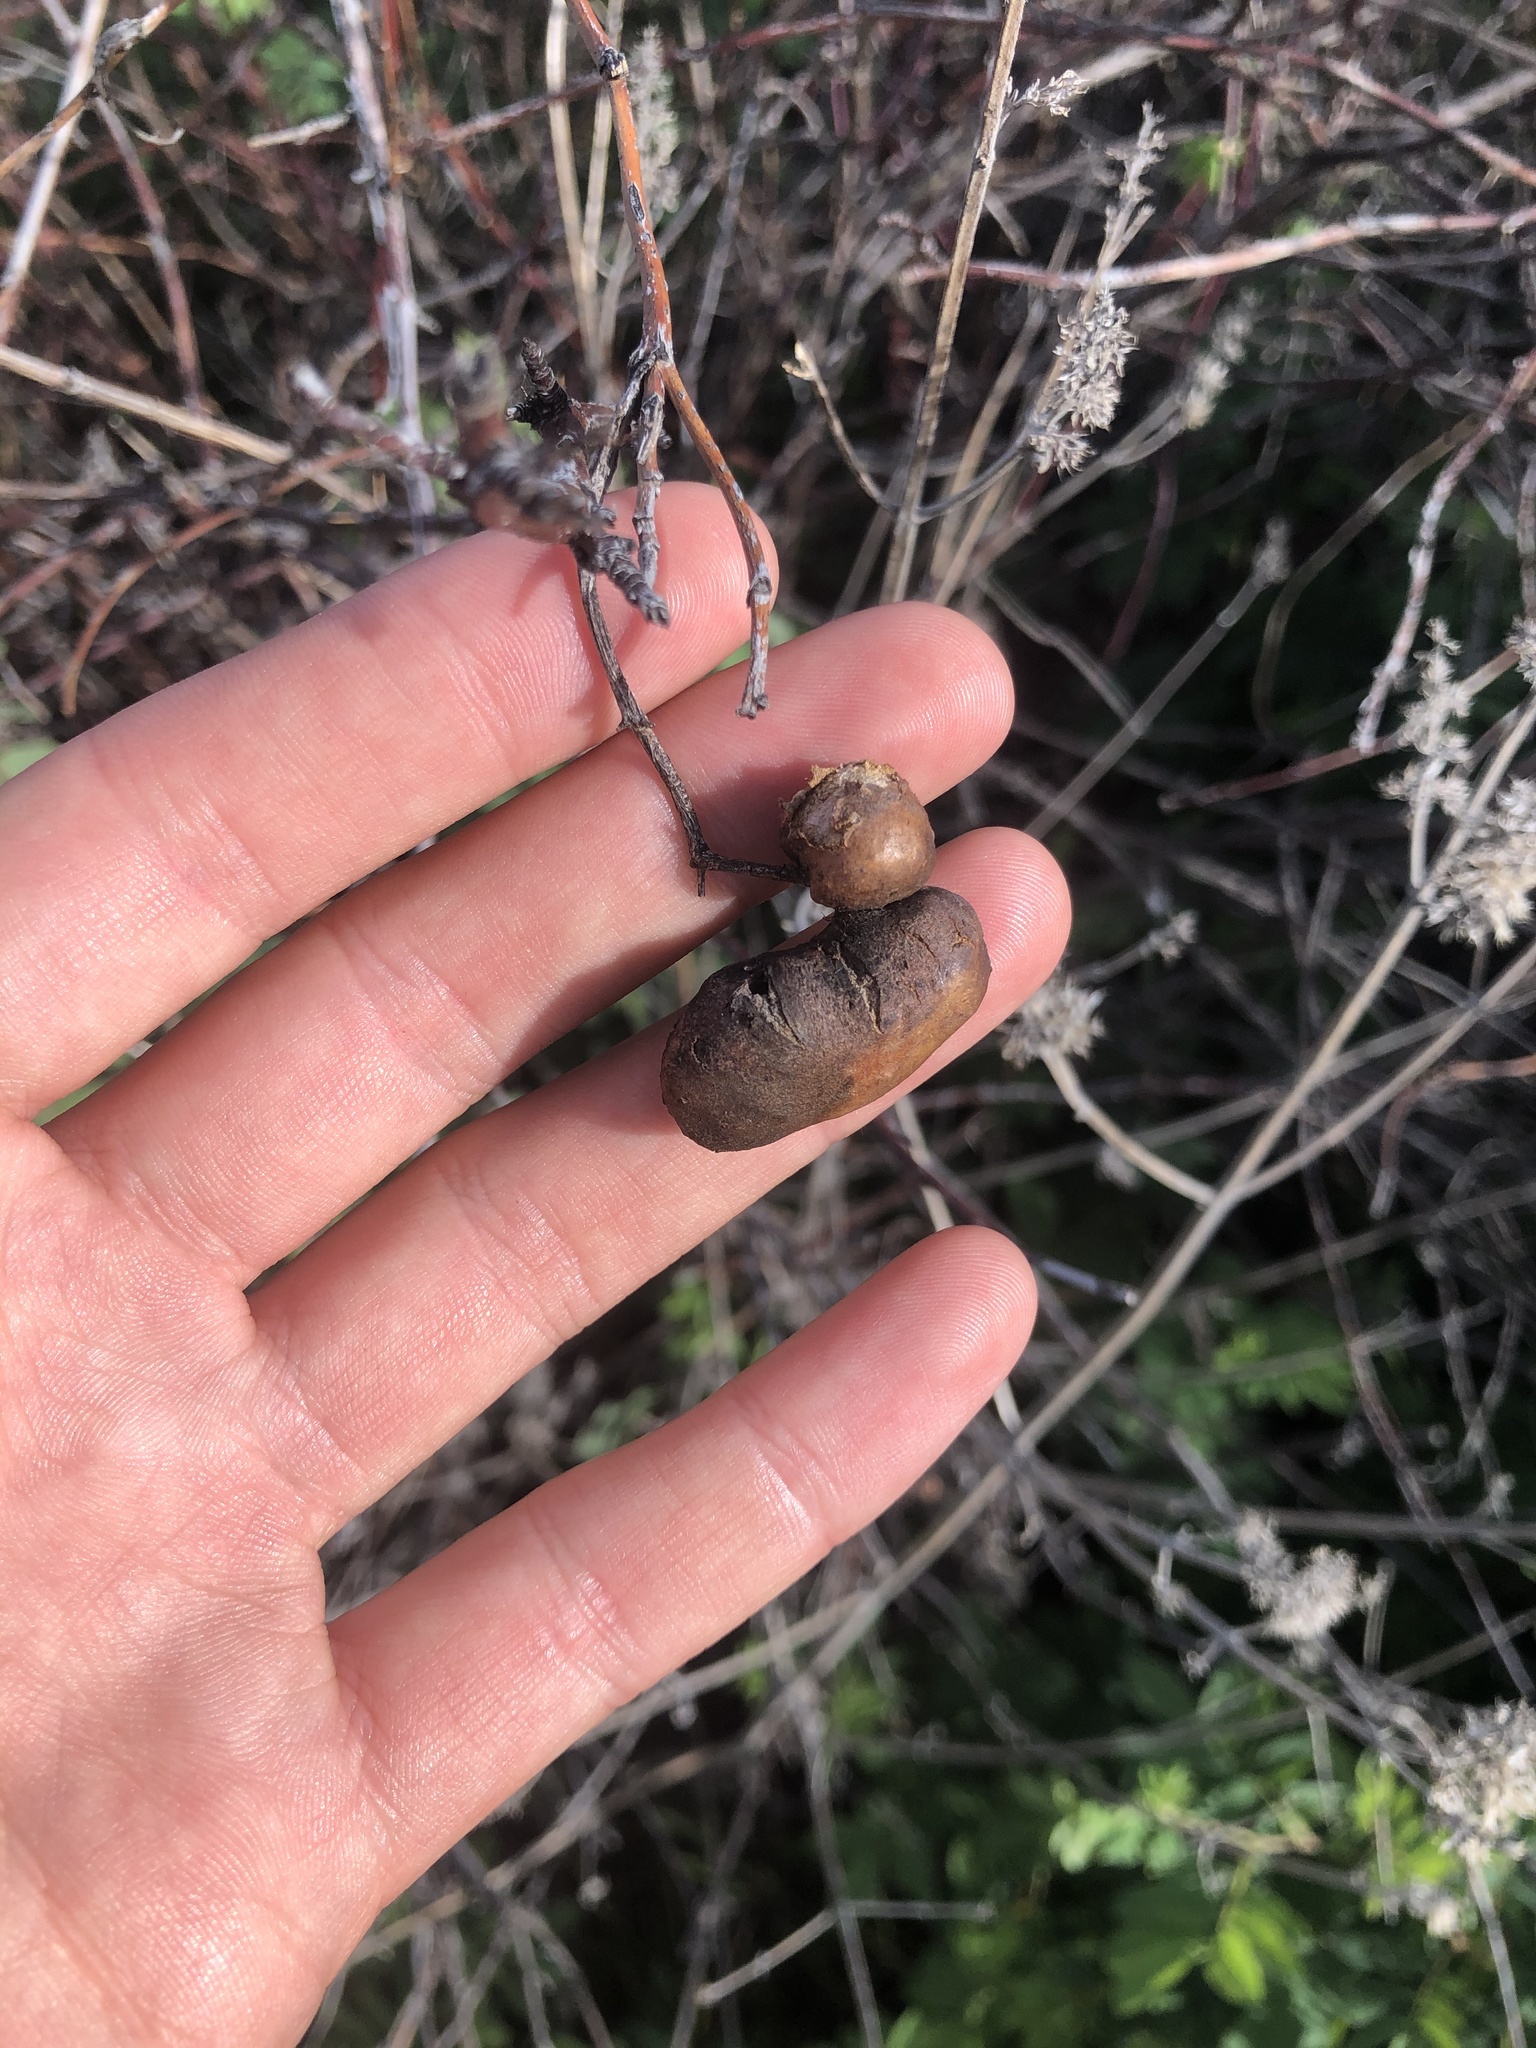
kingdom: Animalia
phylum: Arthropoda
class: Insecta
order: Hymenoptera
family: Cynipidae
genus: Diplolepis
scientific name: Diplolepis variabilis
